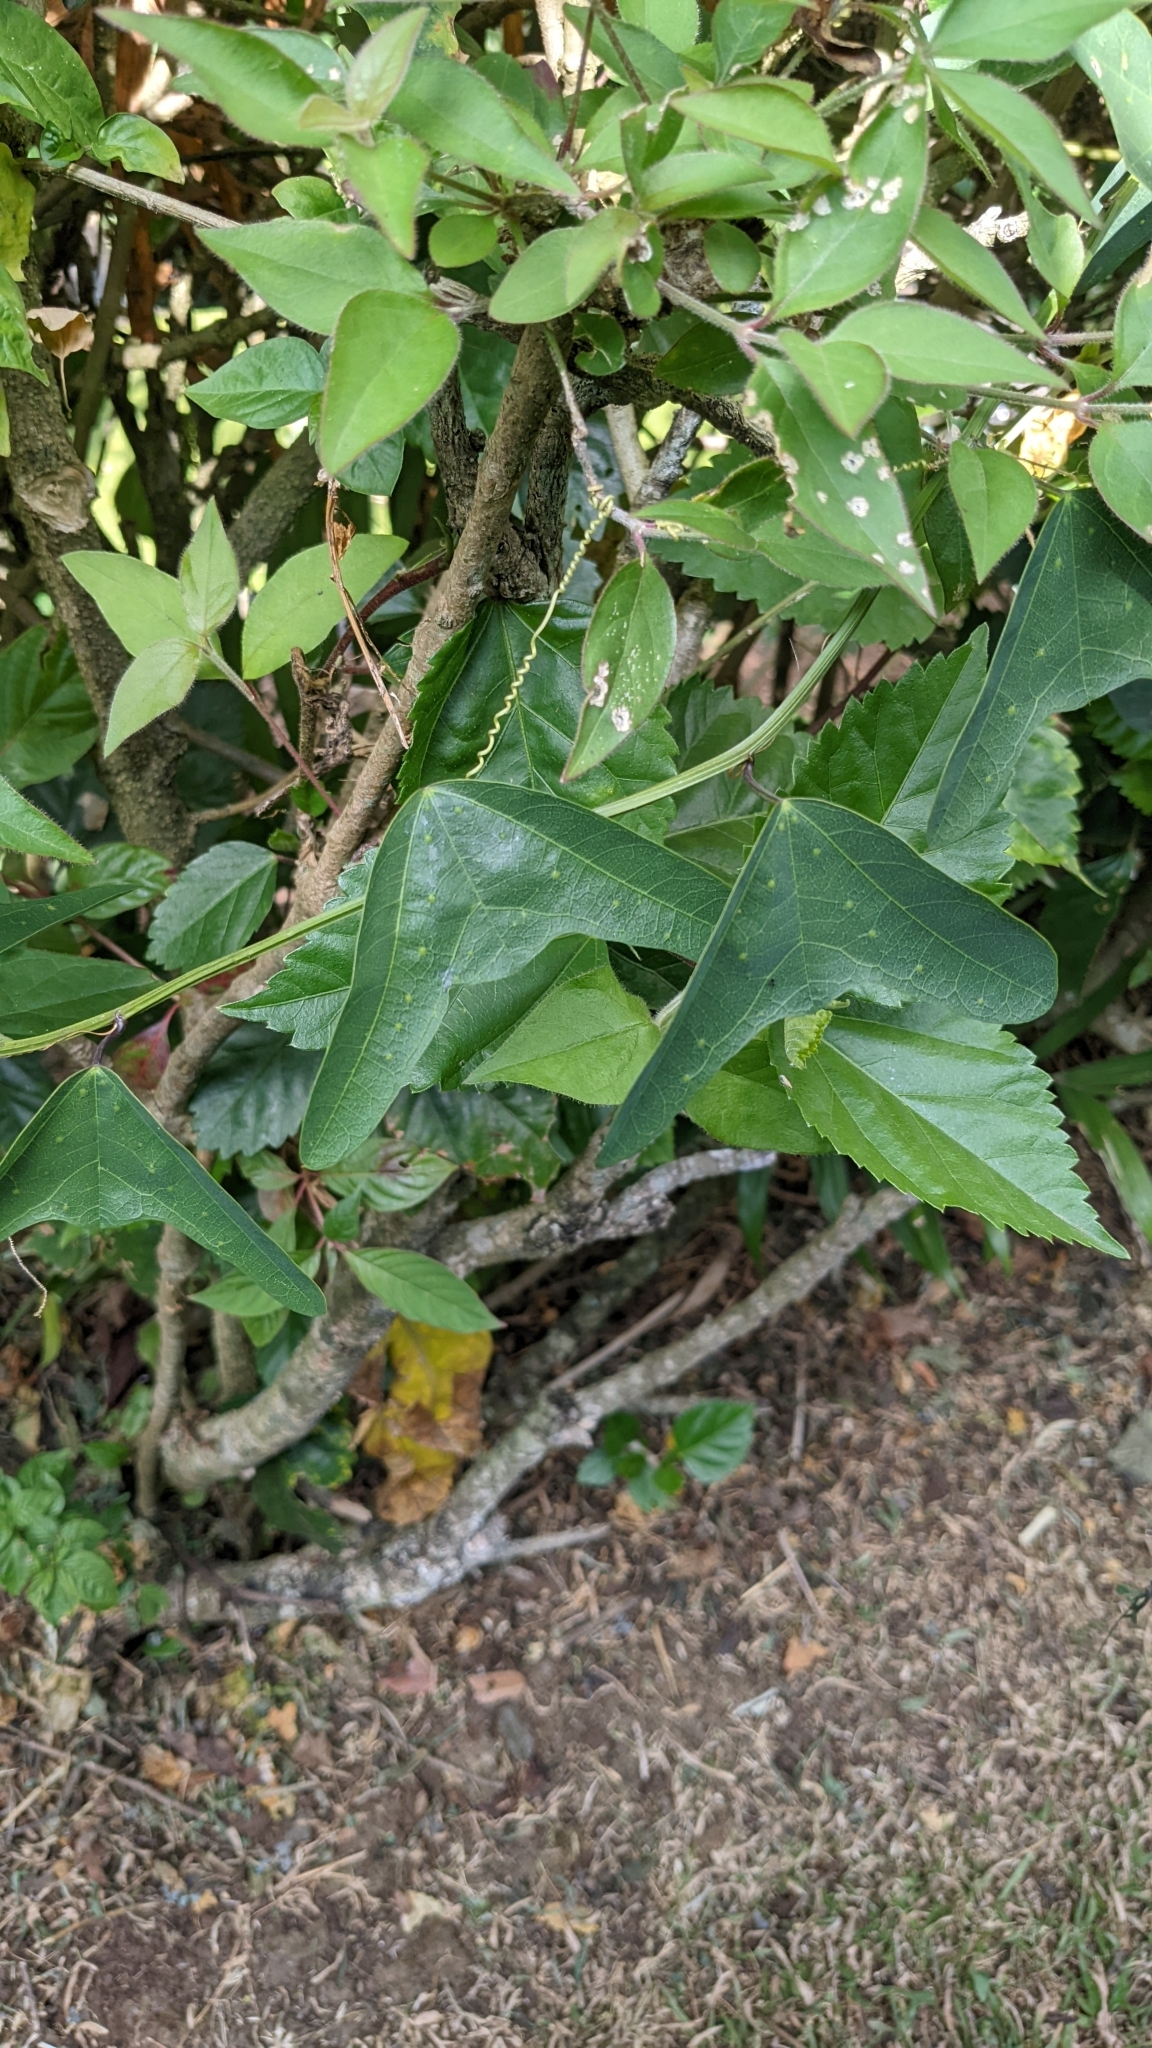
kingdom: Plantae
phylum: Tracheophyta
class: Magnoliopsida
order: Malpighiales
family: Passifloraceae
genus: Passiflora
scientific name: Passiflora biflora
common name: Twoflower passionflower
